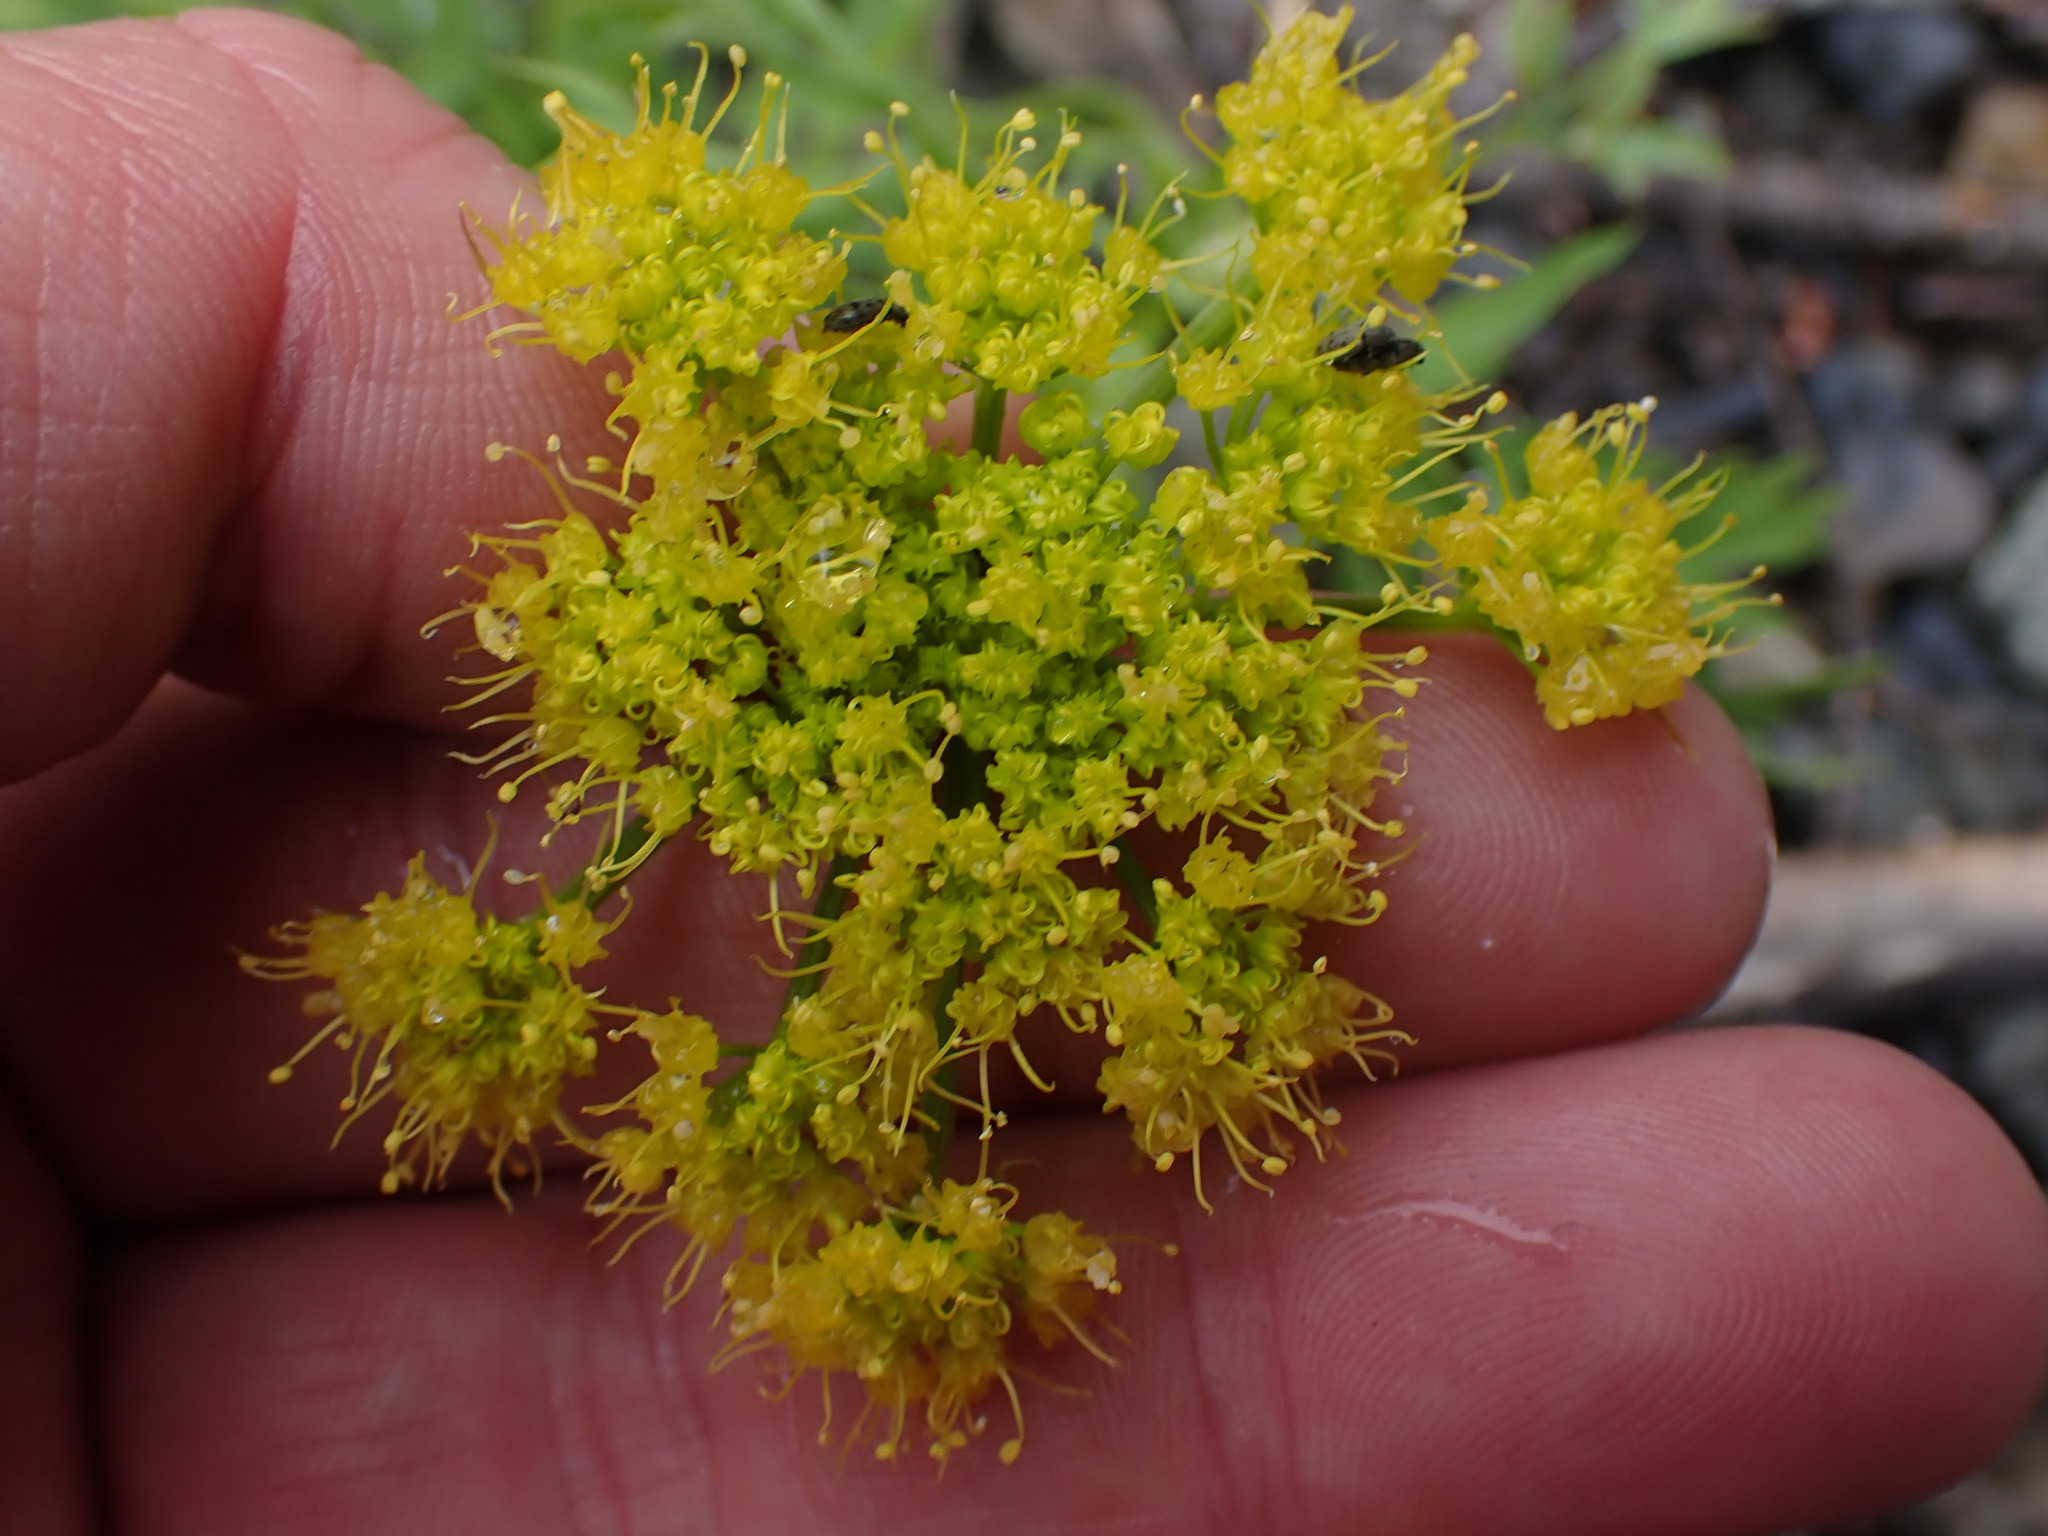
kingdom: Plantae
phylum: Tracheophyta
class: Magnoliopsida
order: Apiales
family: Apiaceae
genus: Lomatium
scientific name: Lomatium brandegeei
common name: Brandegee's desert-parsley
